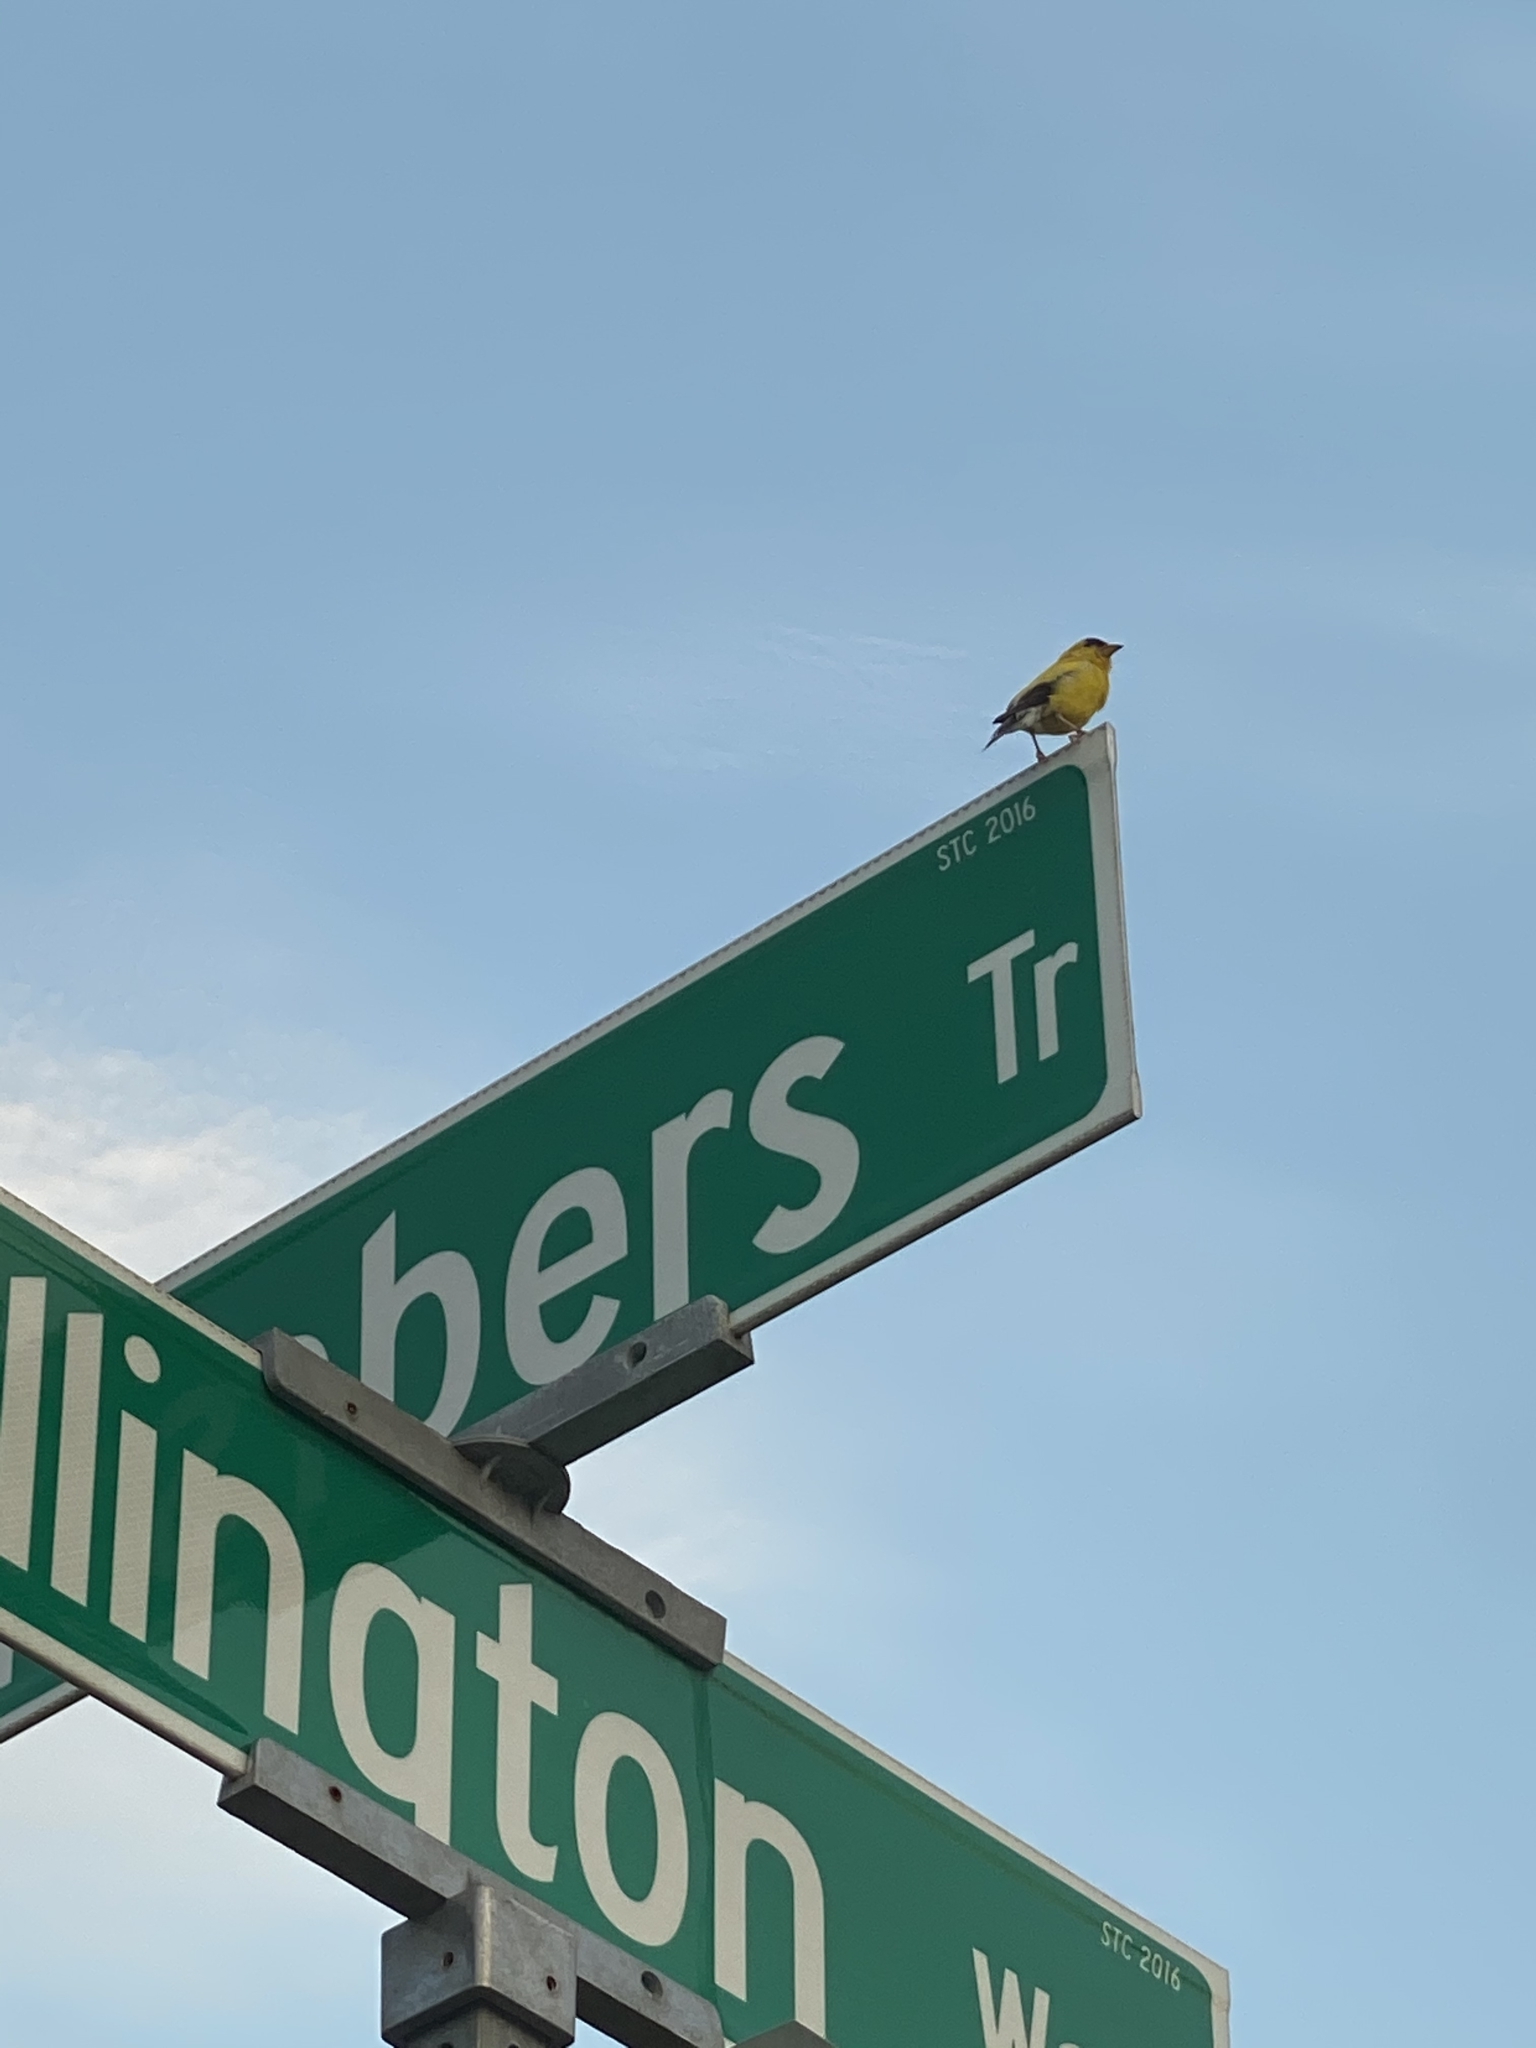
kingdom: Animalia
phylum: Chordata
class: Aves
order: Passeriformes
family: Fringillidae
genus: Spinus
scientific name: Spinus tristis
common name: American goldfinch
